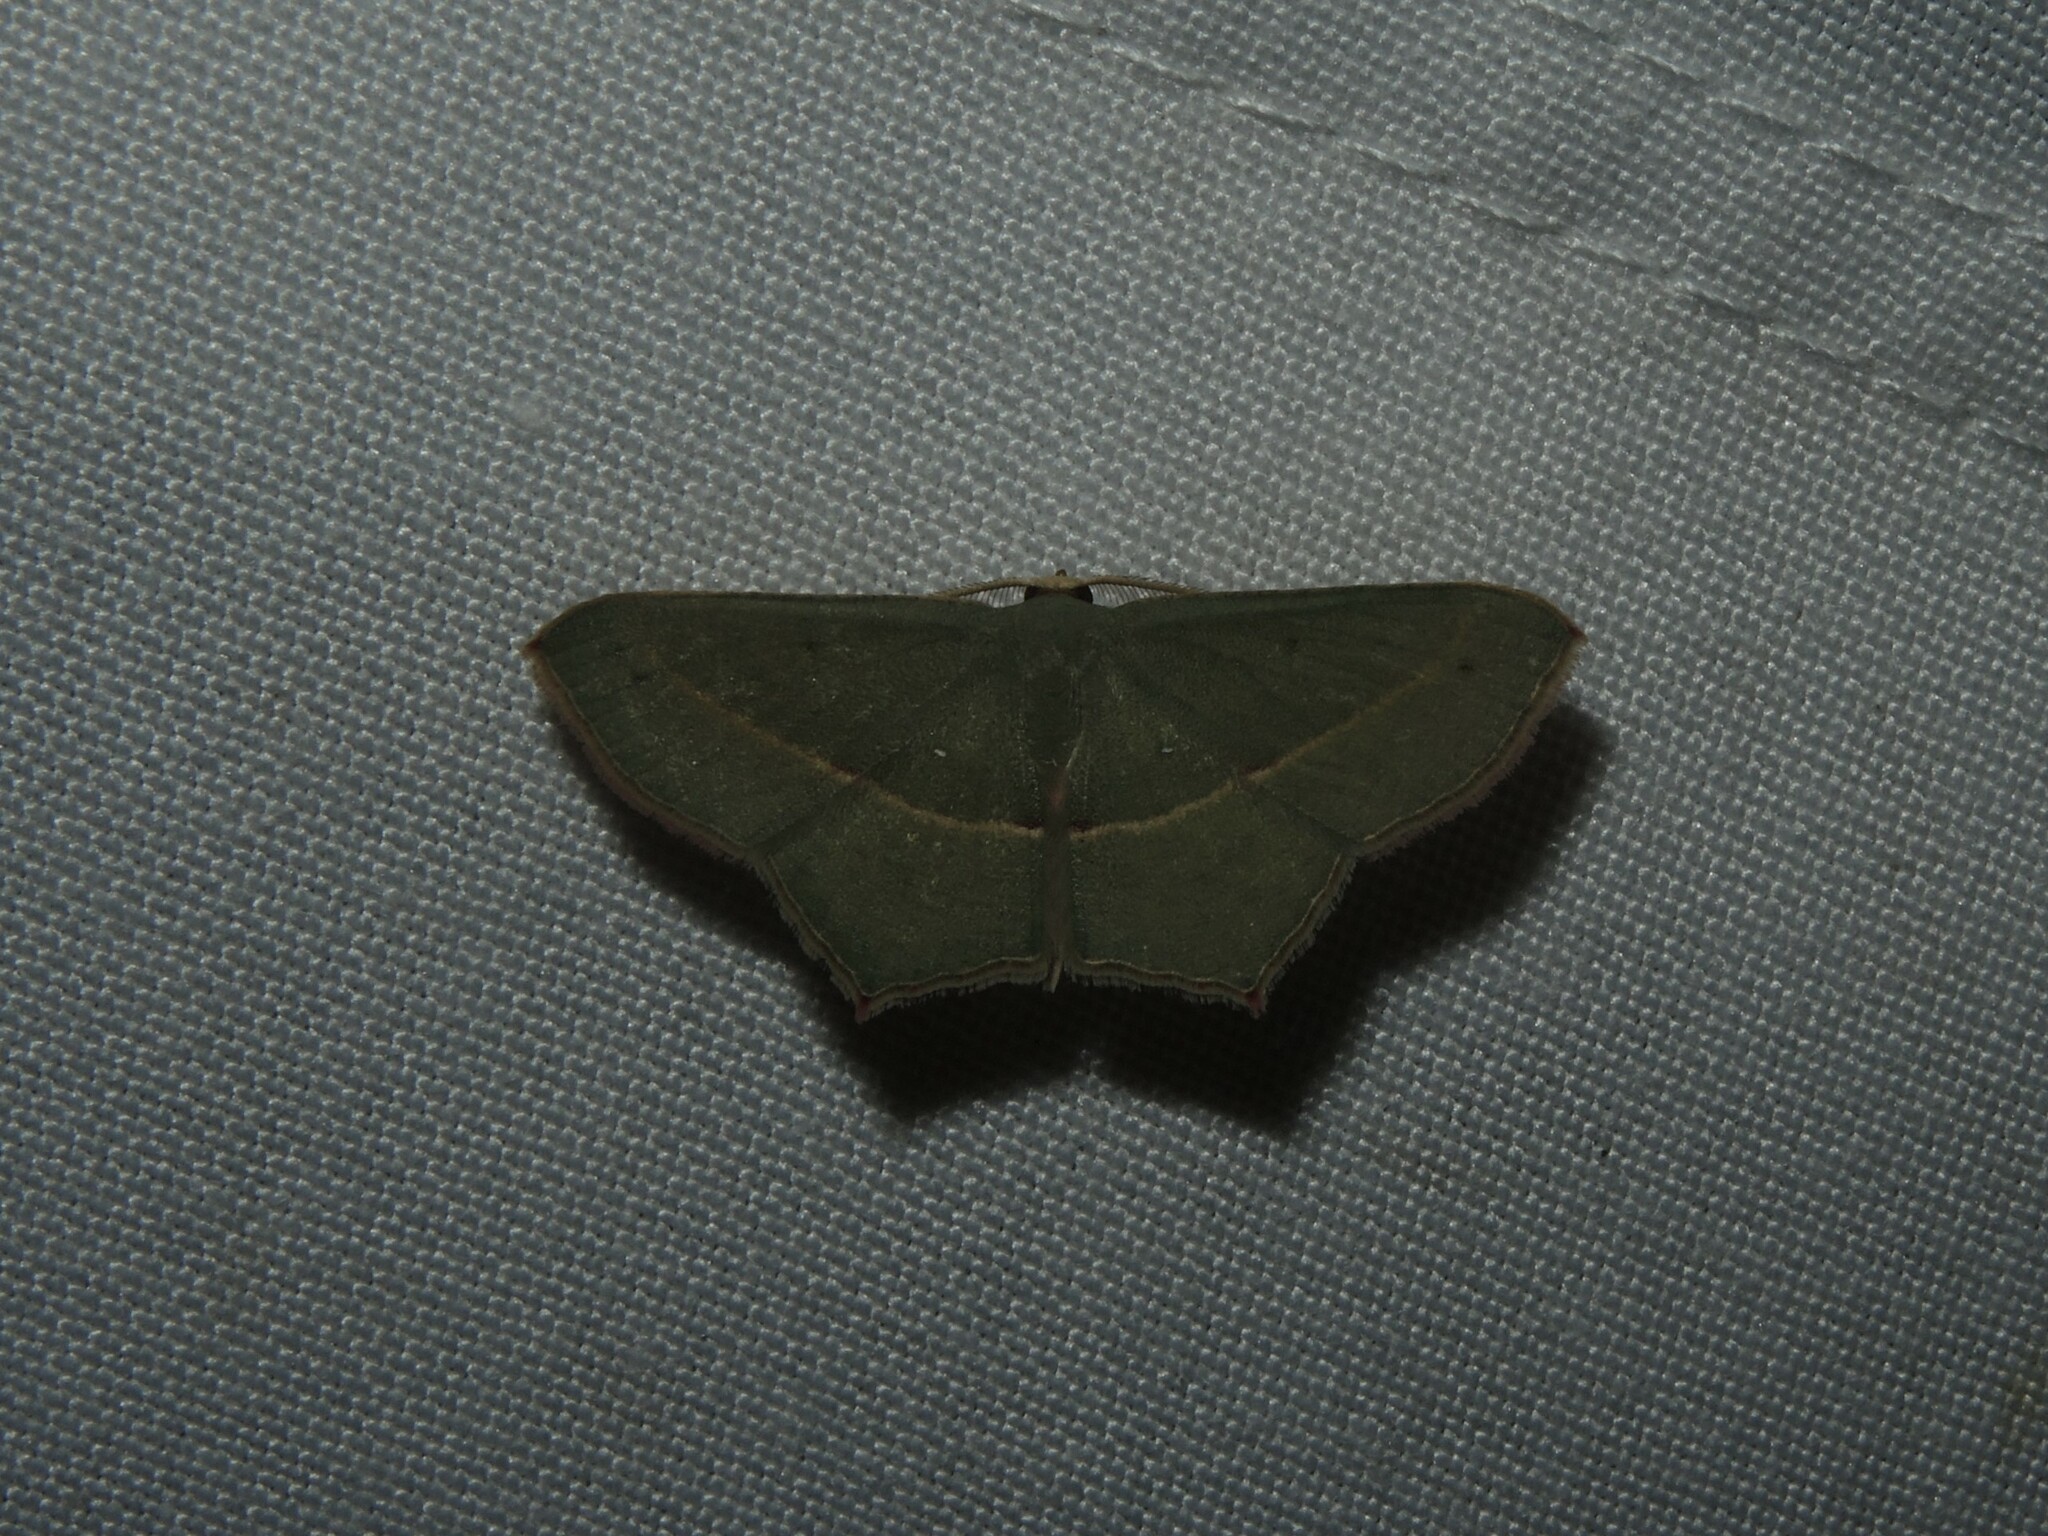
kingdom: Animalia
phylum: Arthropoda
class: Insecta
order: Lepidoptera
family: Geometridae
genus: Traminda
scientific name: Traminda mundissima
